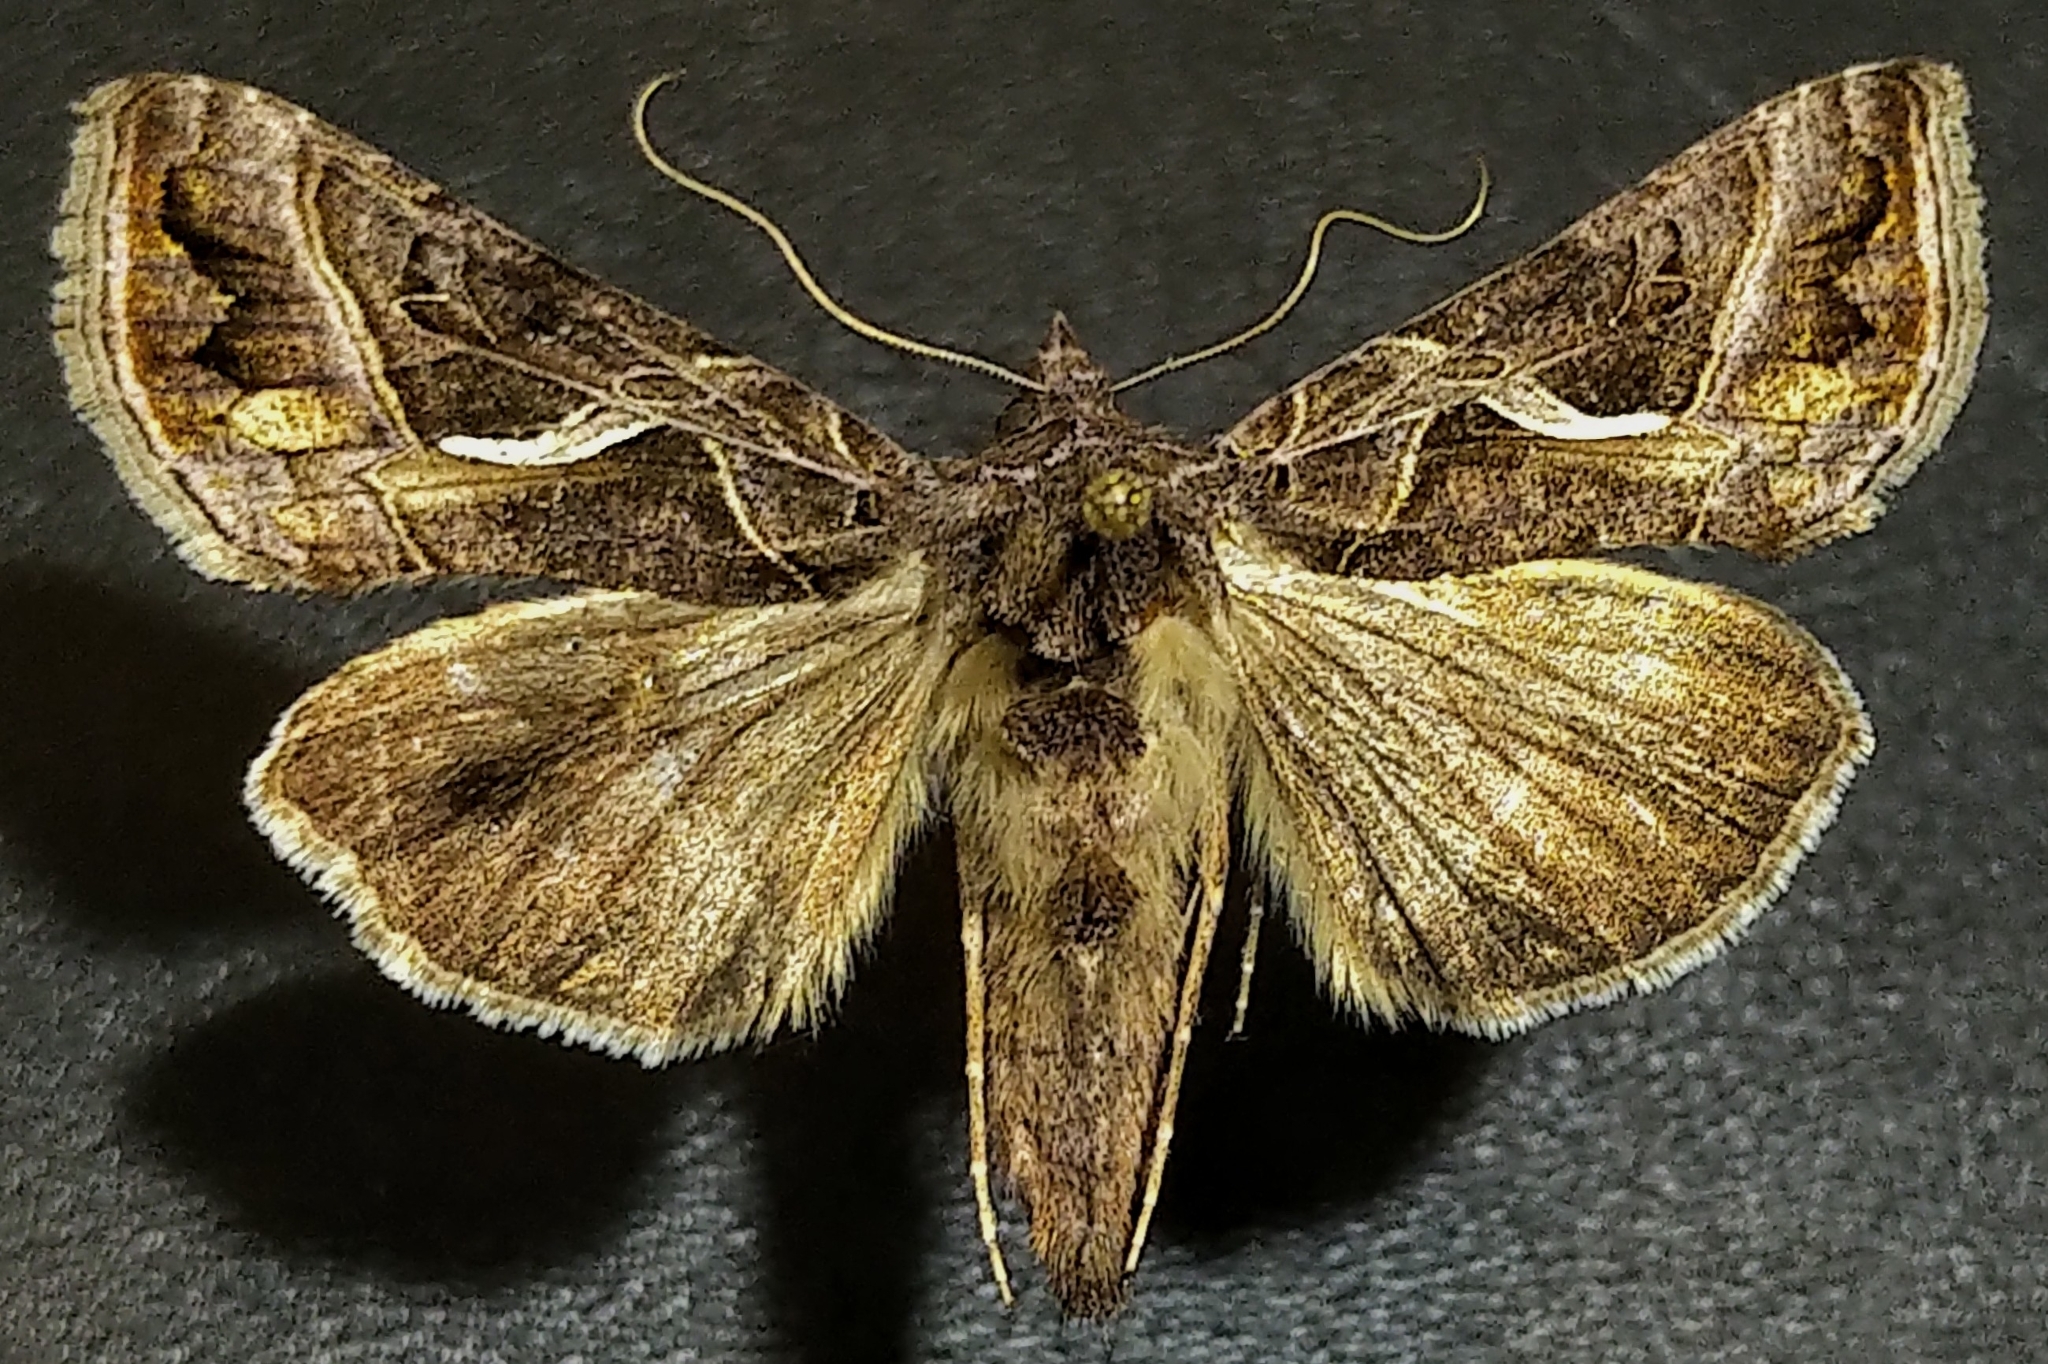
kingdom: Animalia
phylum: Arthropoda
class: Insecta
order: Lepidoptera
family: Noctuidae
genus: Autographa
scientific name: Autographa flagellum
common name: Silver whip moth
